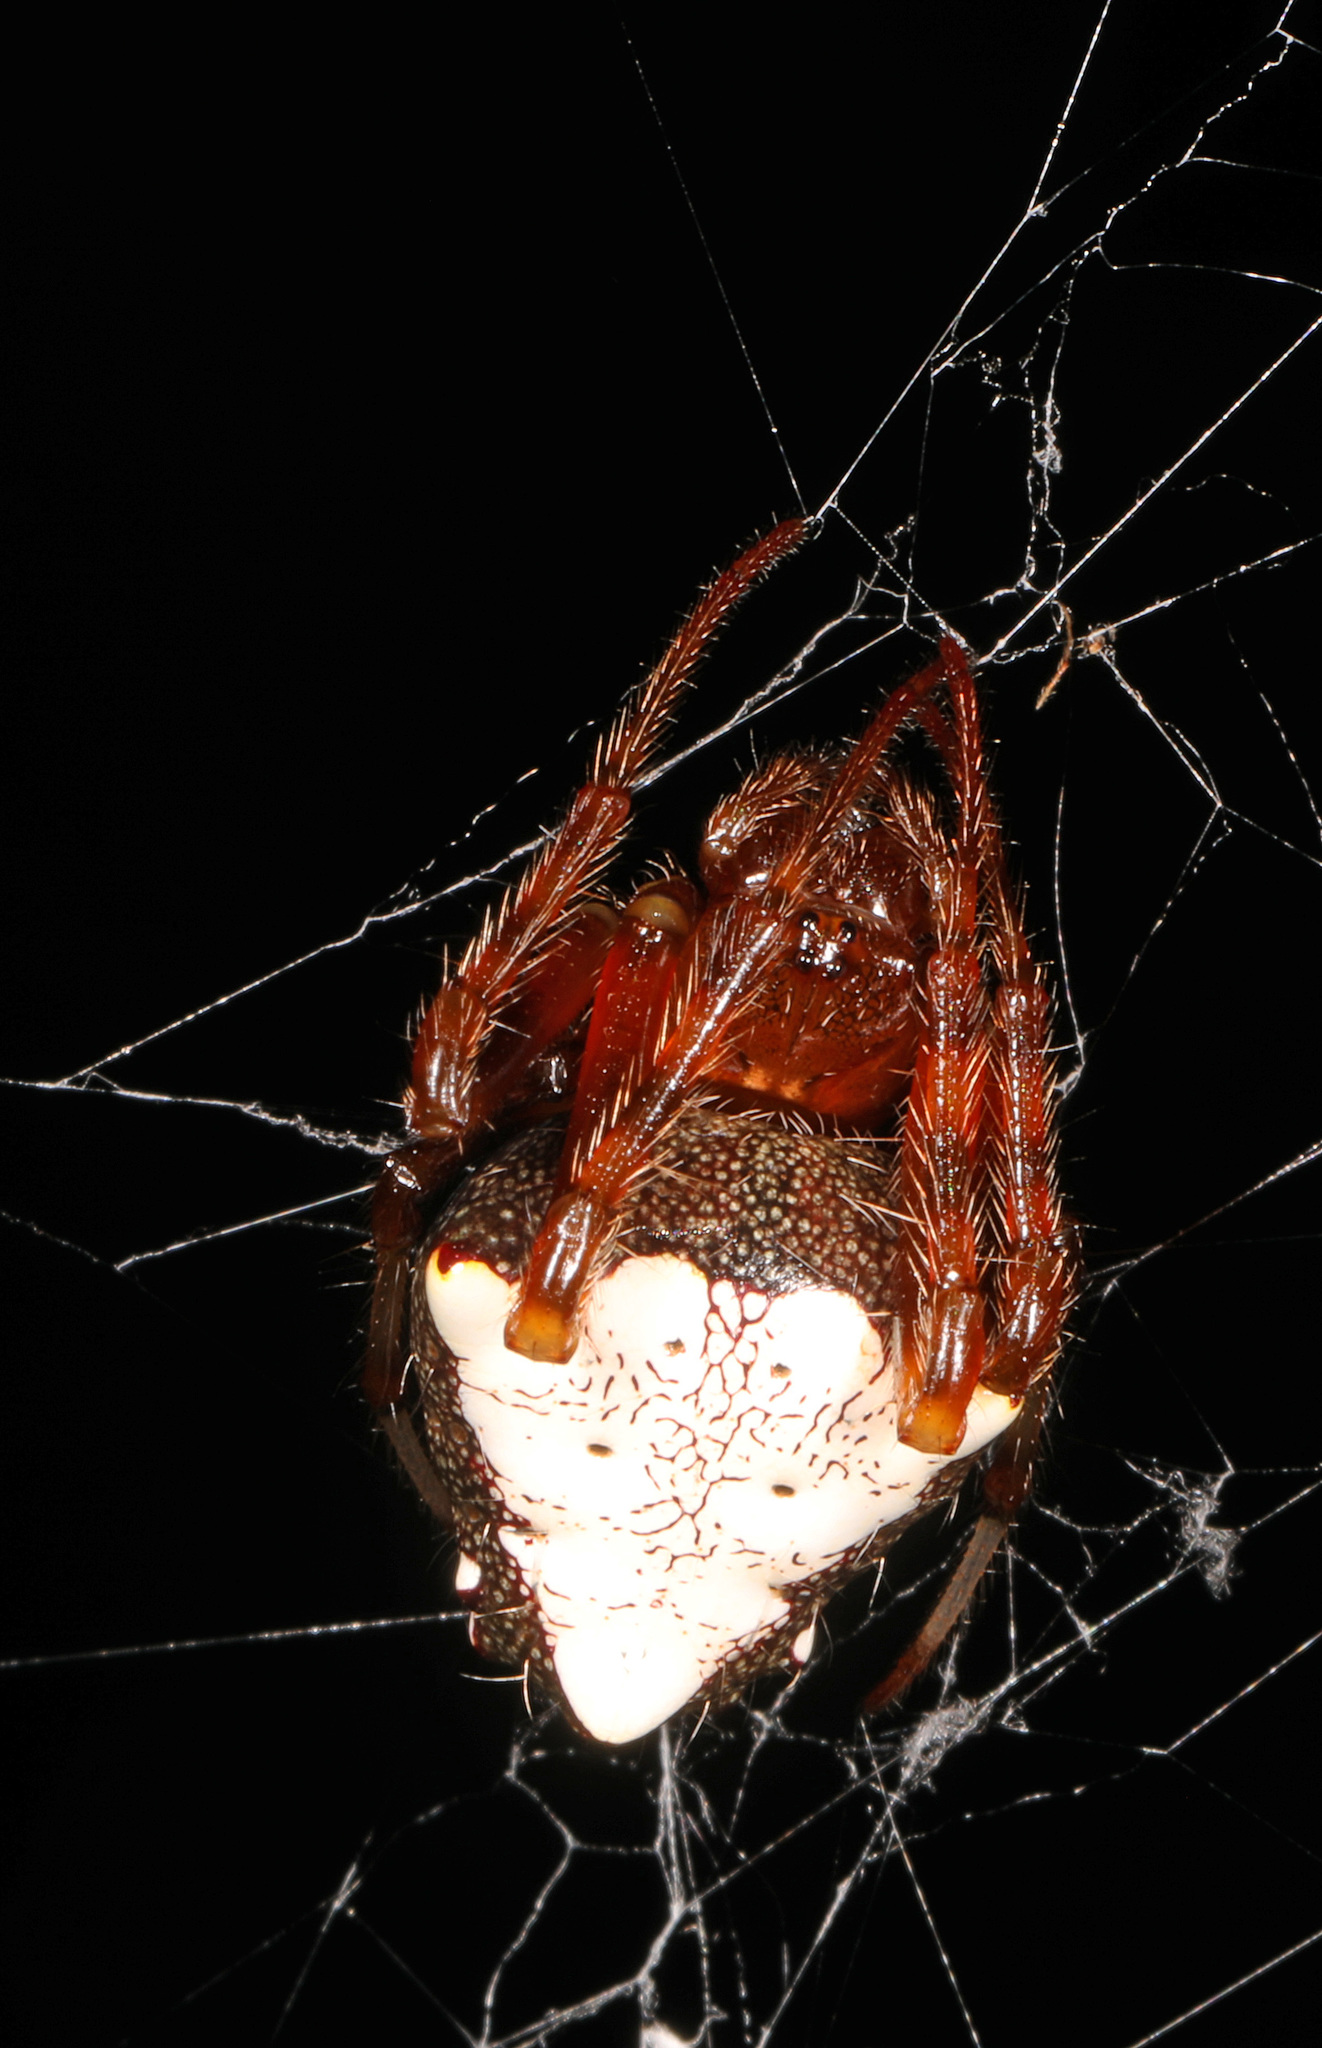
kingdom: Animalia
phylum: Arthropoda
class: Arachnida
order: Araneae
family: Araneidae
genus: Verrucosa
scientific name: Verrucosa arenata
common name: Orb weavers
